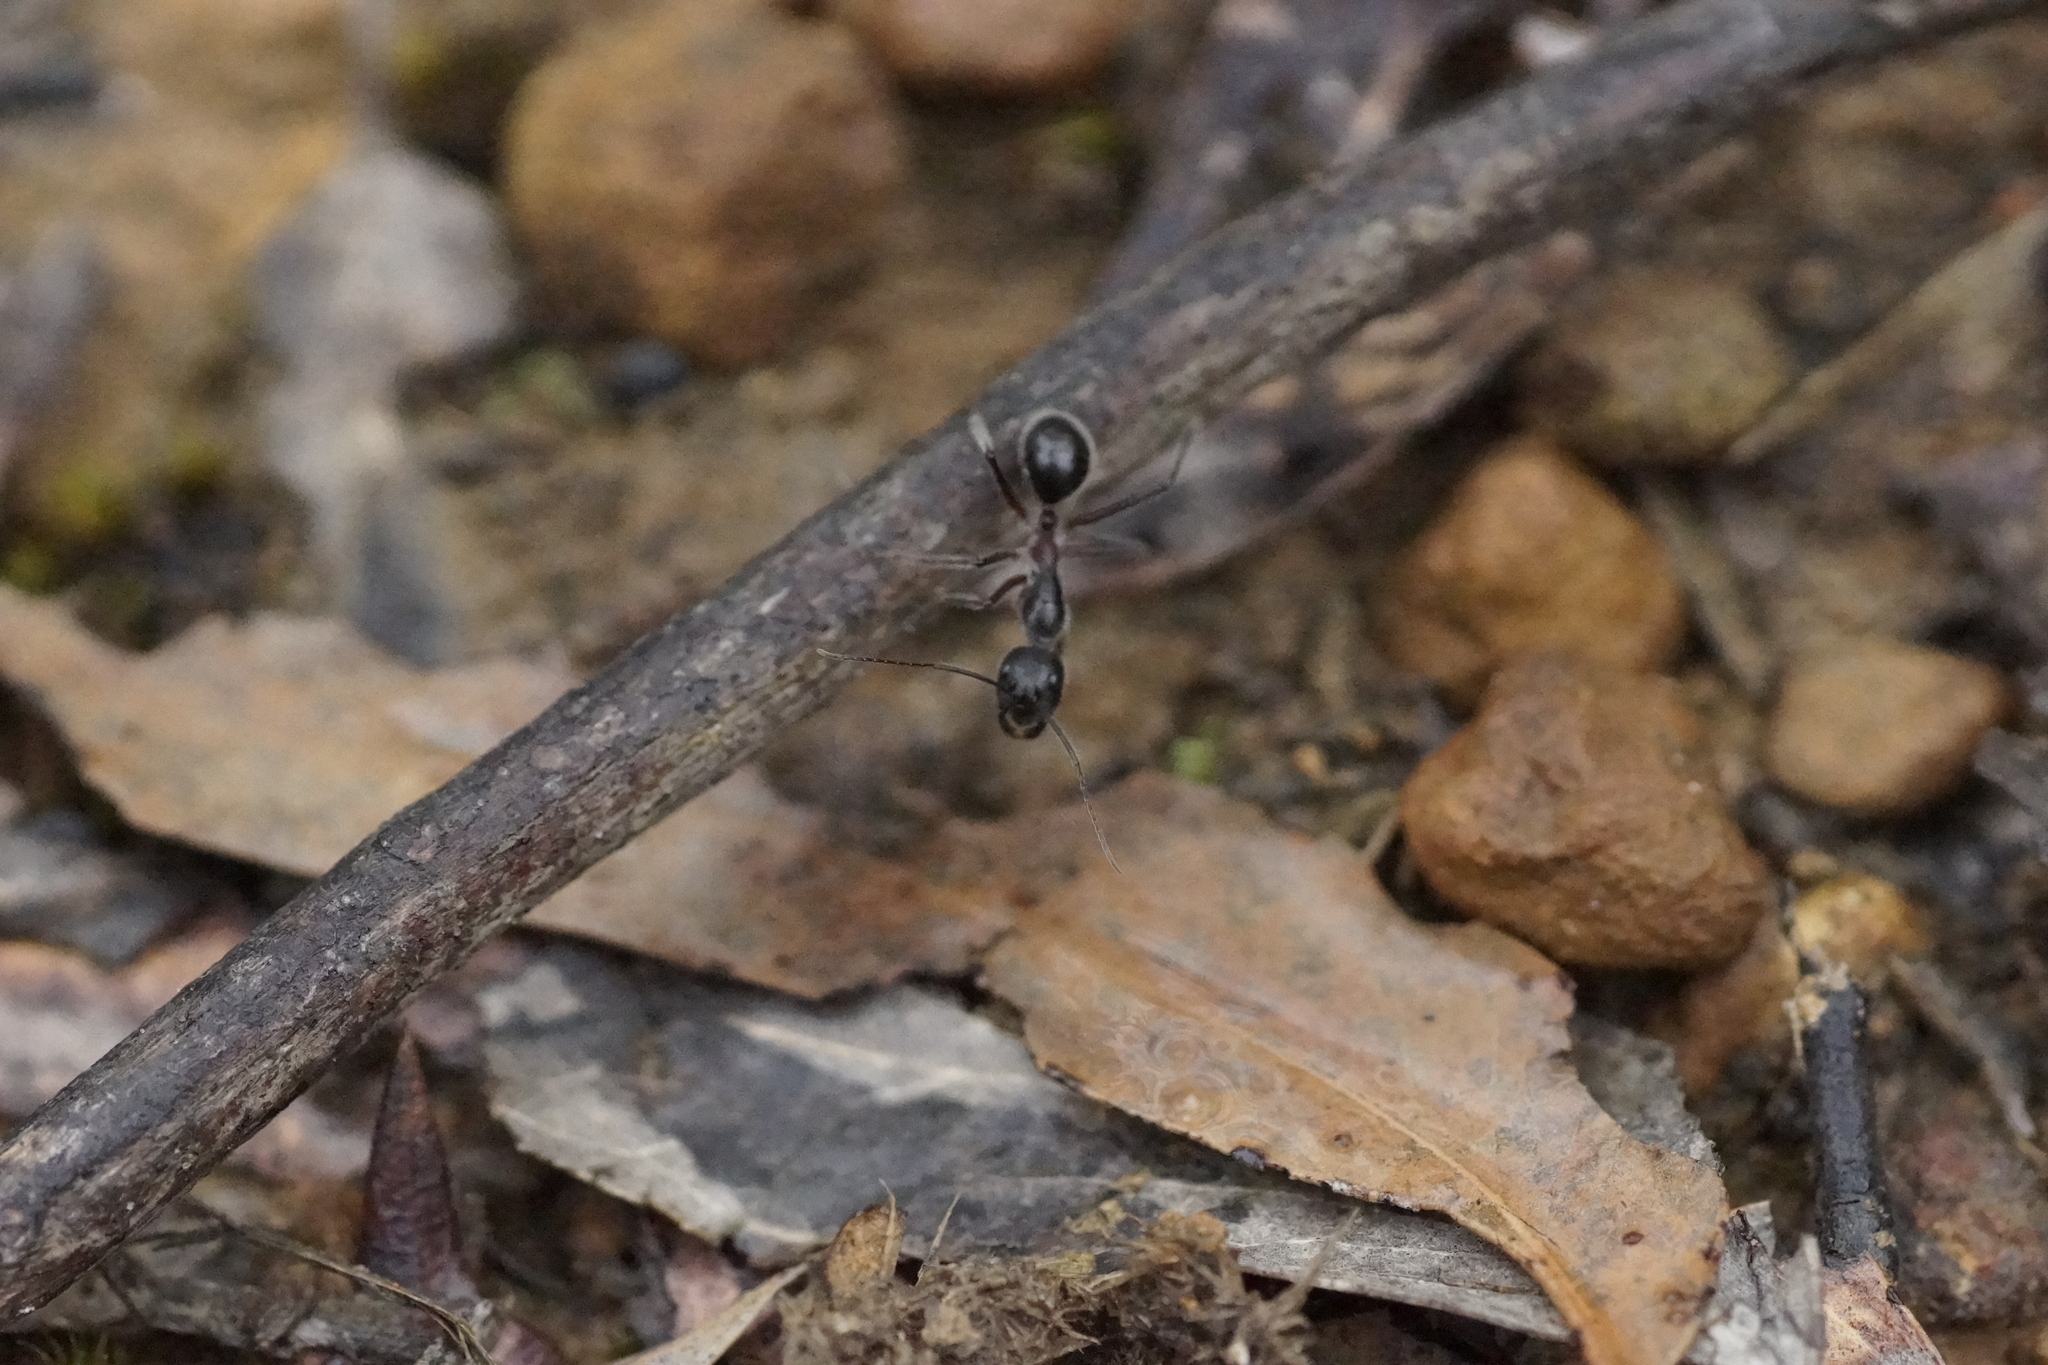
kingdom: Animalia
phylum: Arthropoda
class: Insecta
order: Hymenoptera
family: Formicidae
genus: Camponotus
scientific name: Camponotus intrepidus
